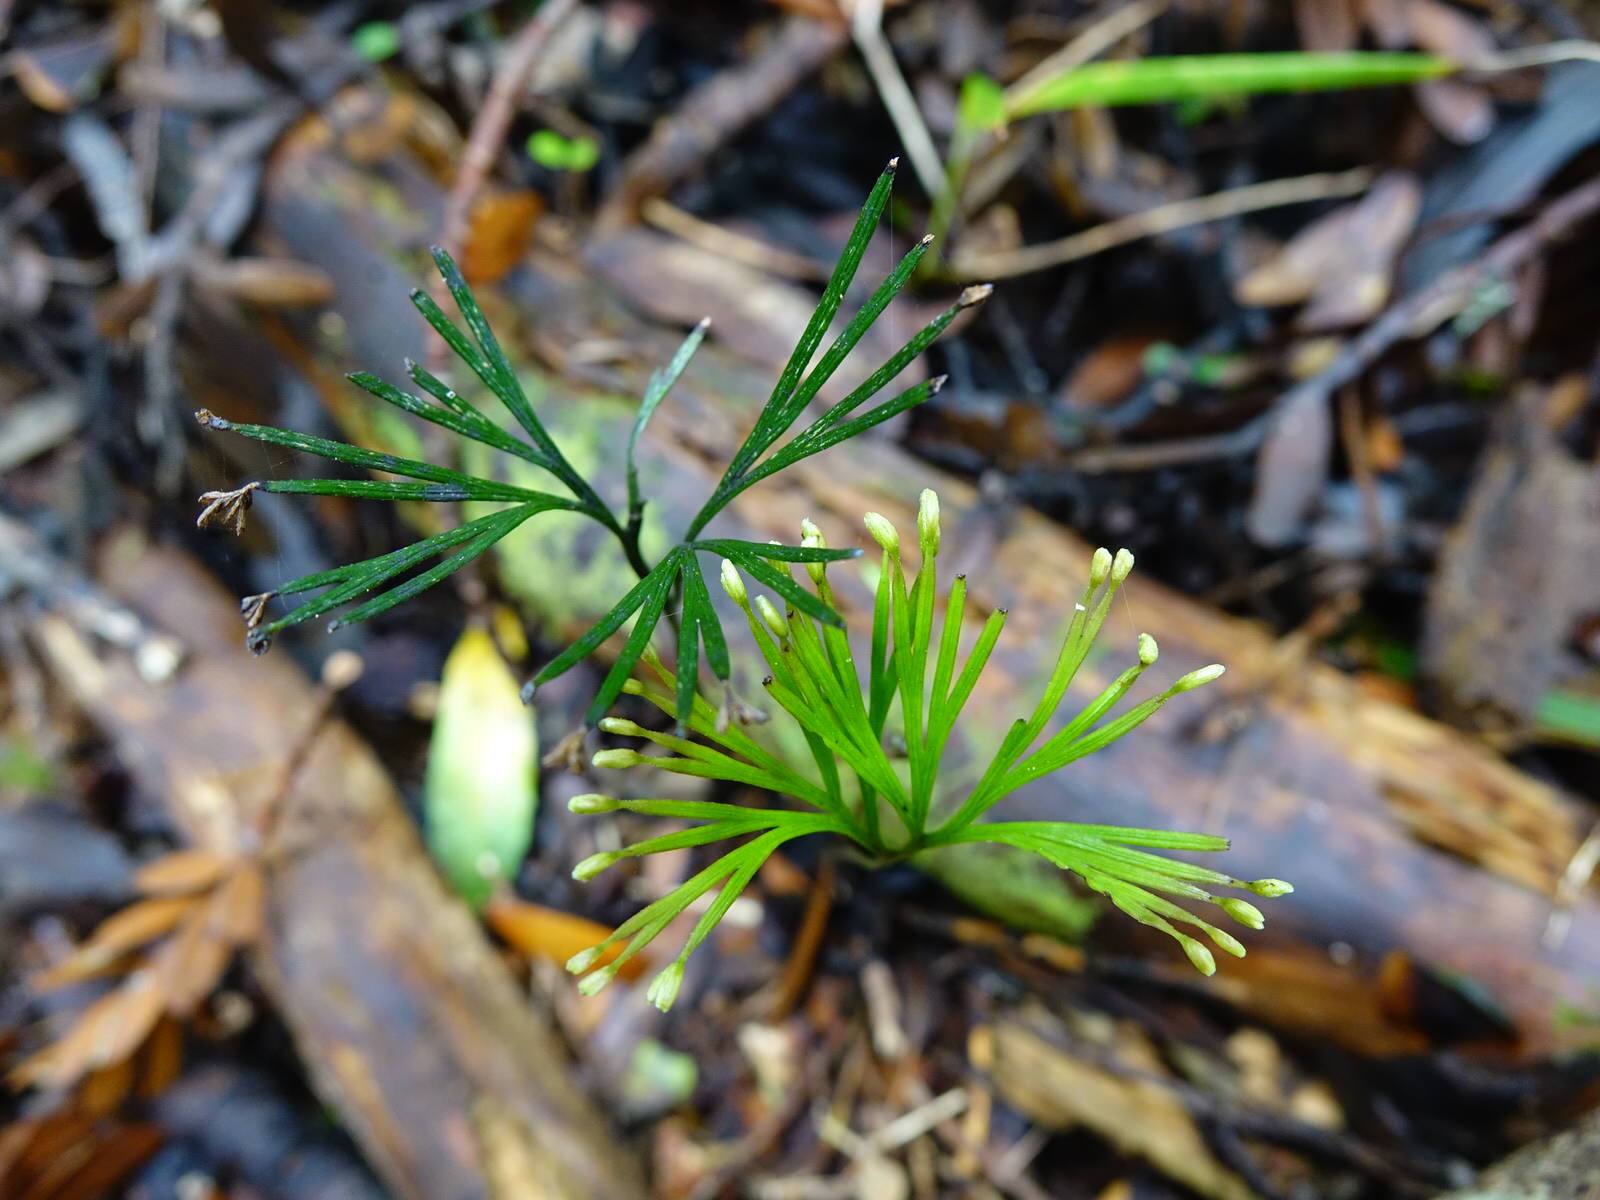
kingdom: Plantae
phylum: Tracheophyta
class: Polypodiopsida
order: Schizaeales
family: Schizaeaceae
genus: Schizaea
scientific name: Schizaea dichotoma
